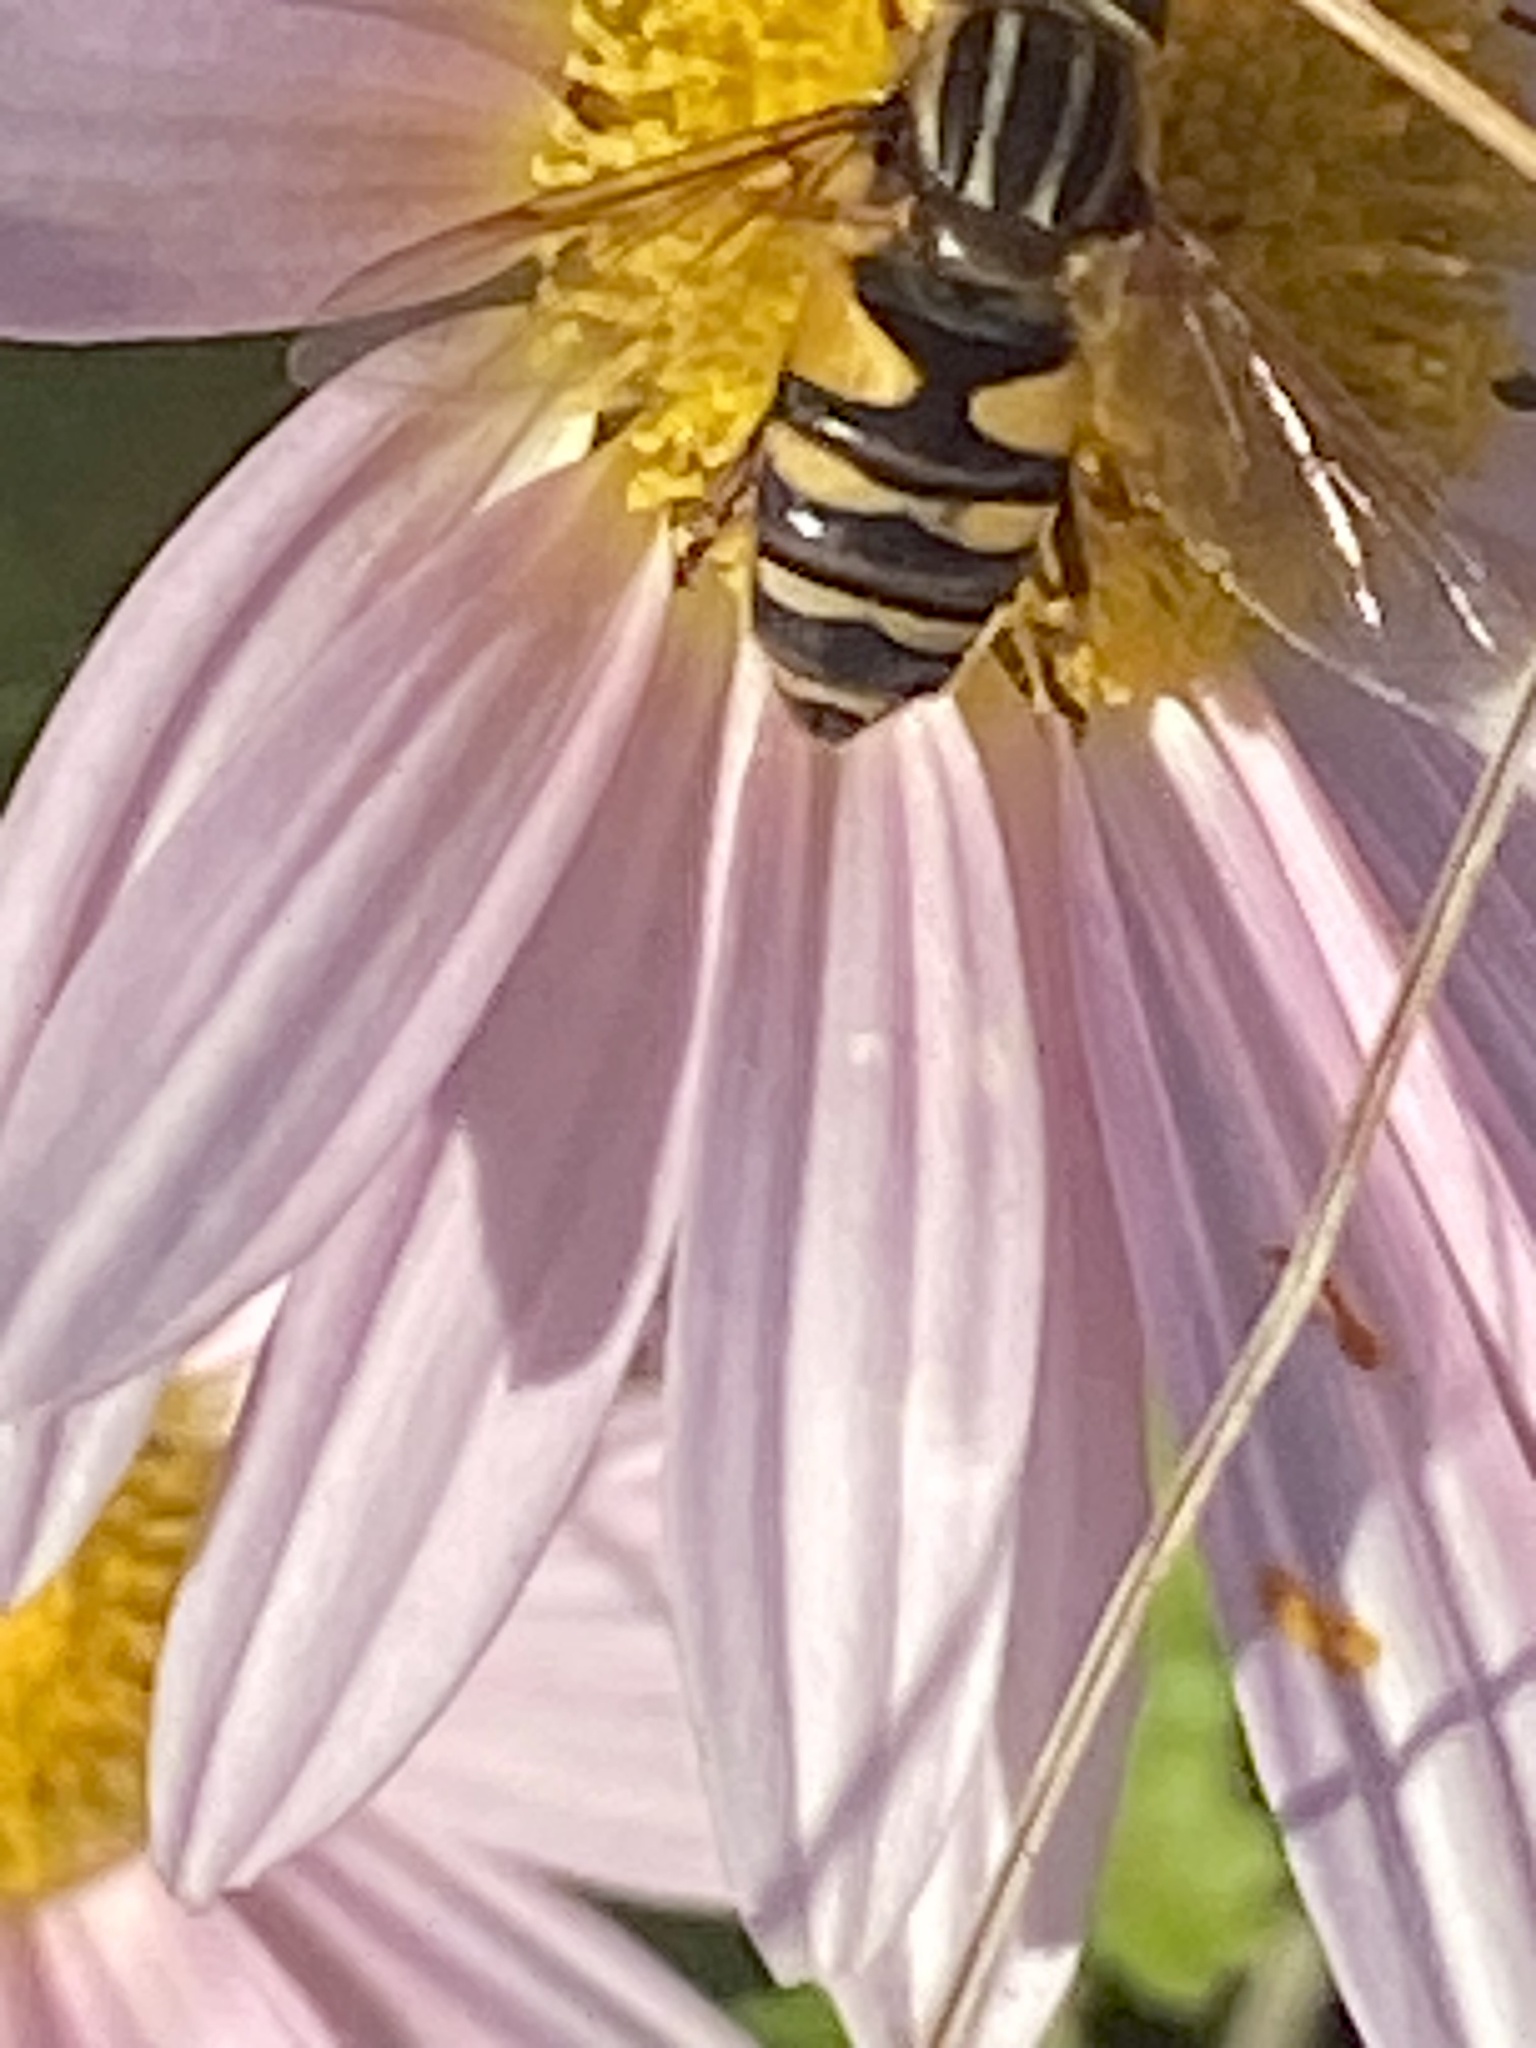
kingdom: Animalia
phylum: Arthropoda
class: Insecta
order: Diptera
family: Syrphidae
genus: Helophilus
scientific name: Helophilus fasciatus
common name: Narrow-headed marsh fly
